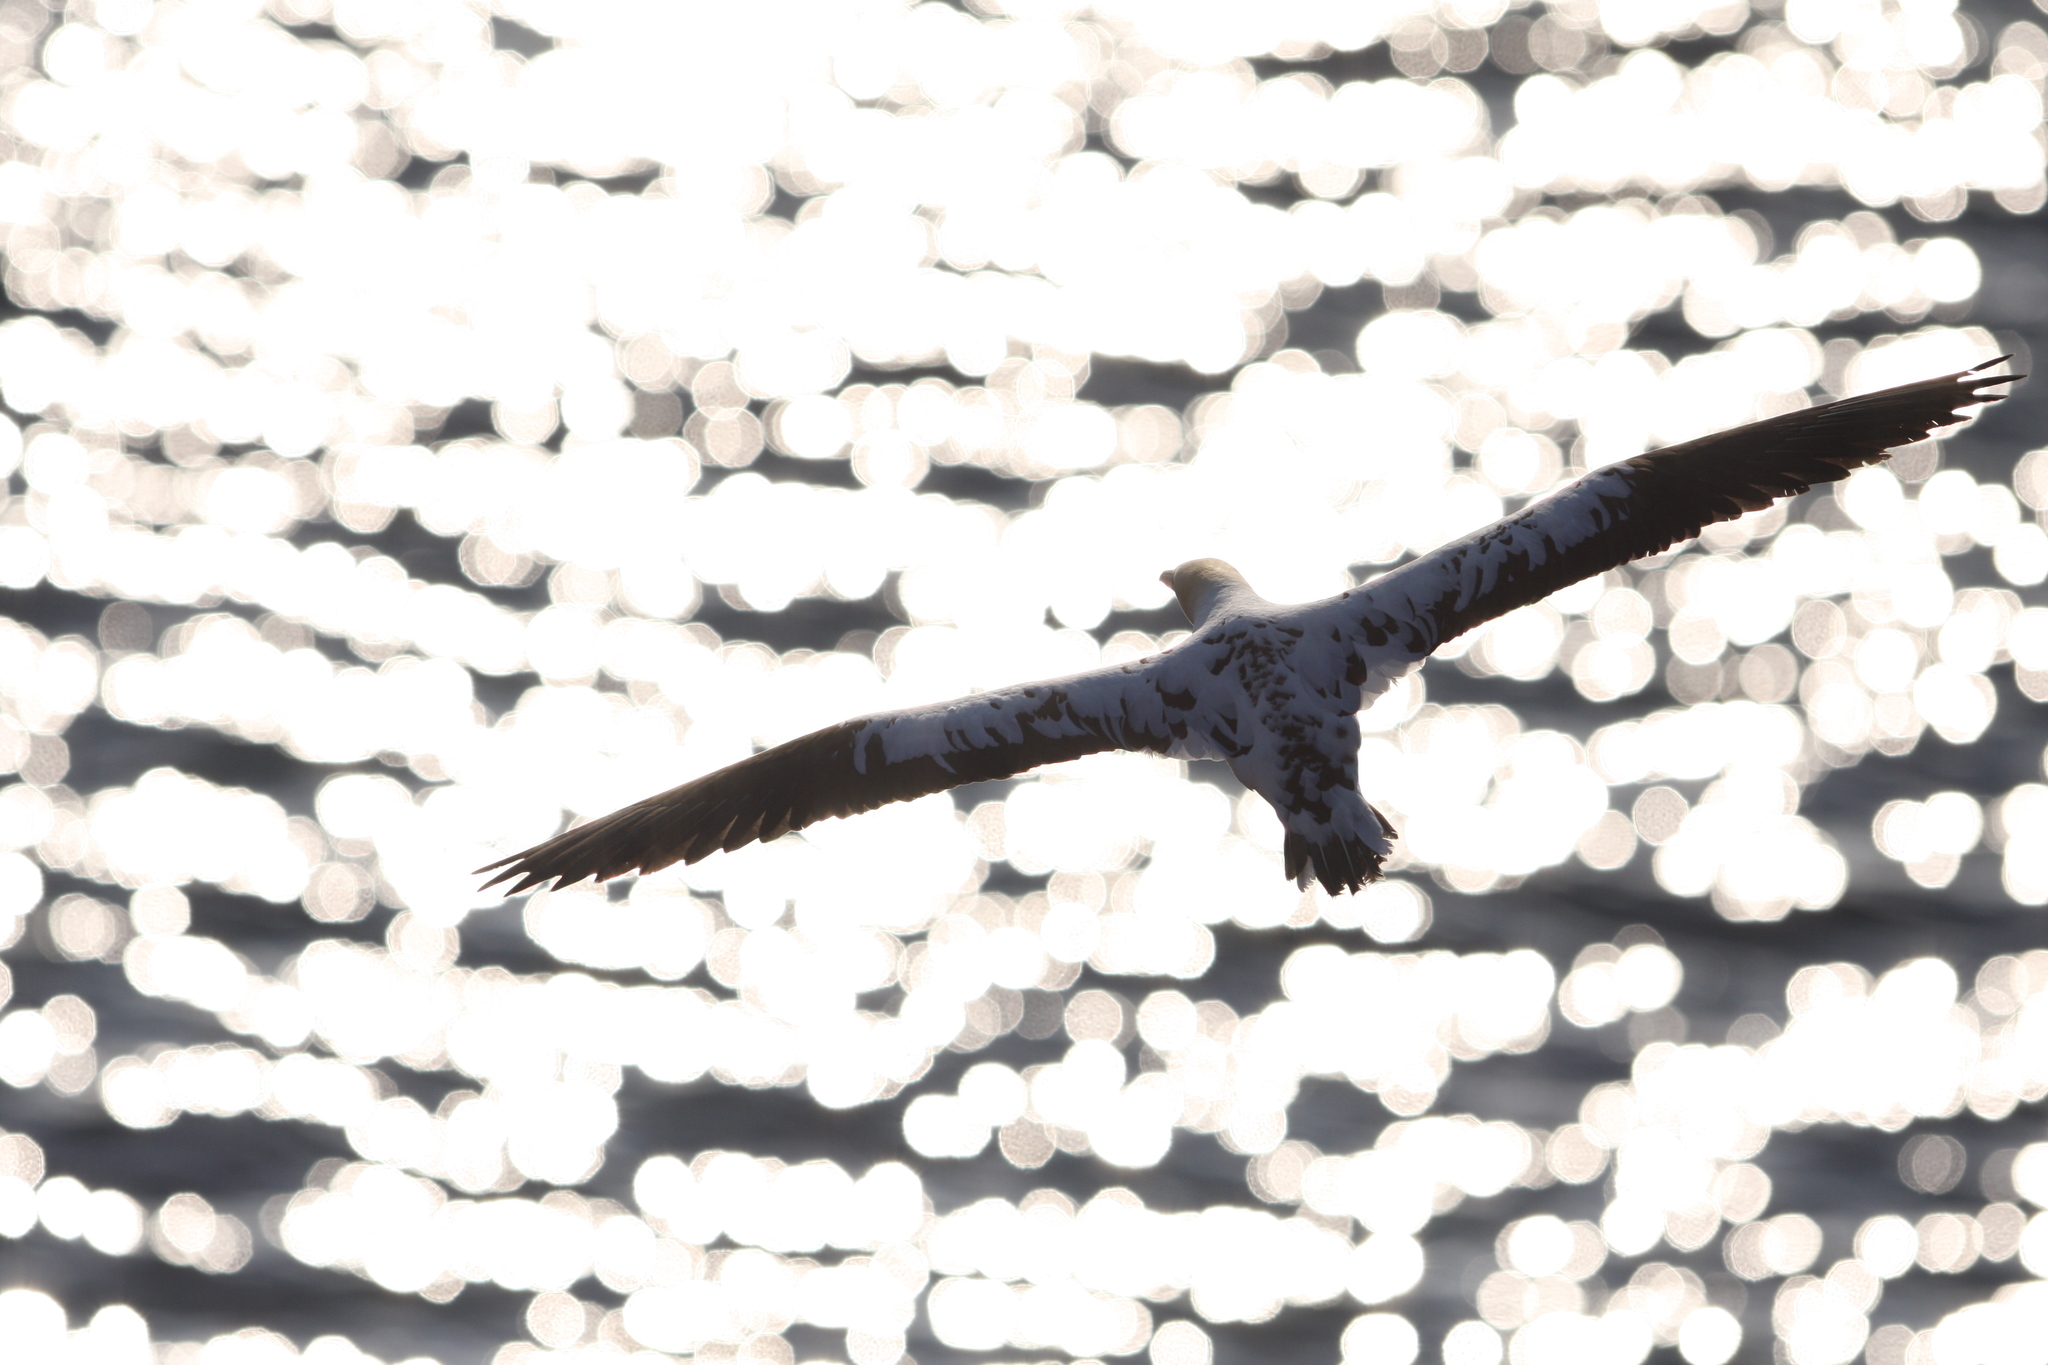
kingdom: Animalia
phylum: Chordata
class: Aves
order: Suliformes
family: Sulidae
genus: Morus
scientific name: Morus bassanus
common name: Northern gannet
